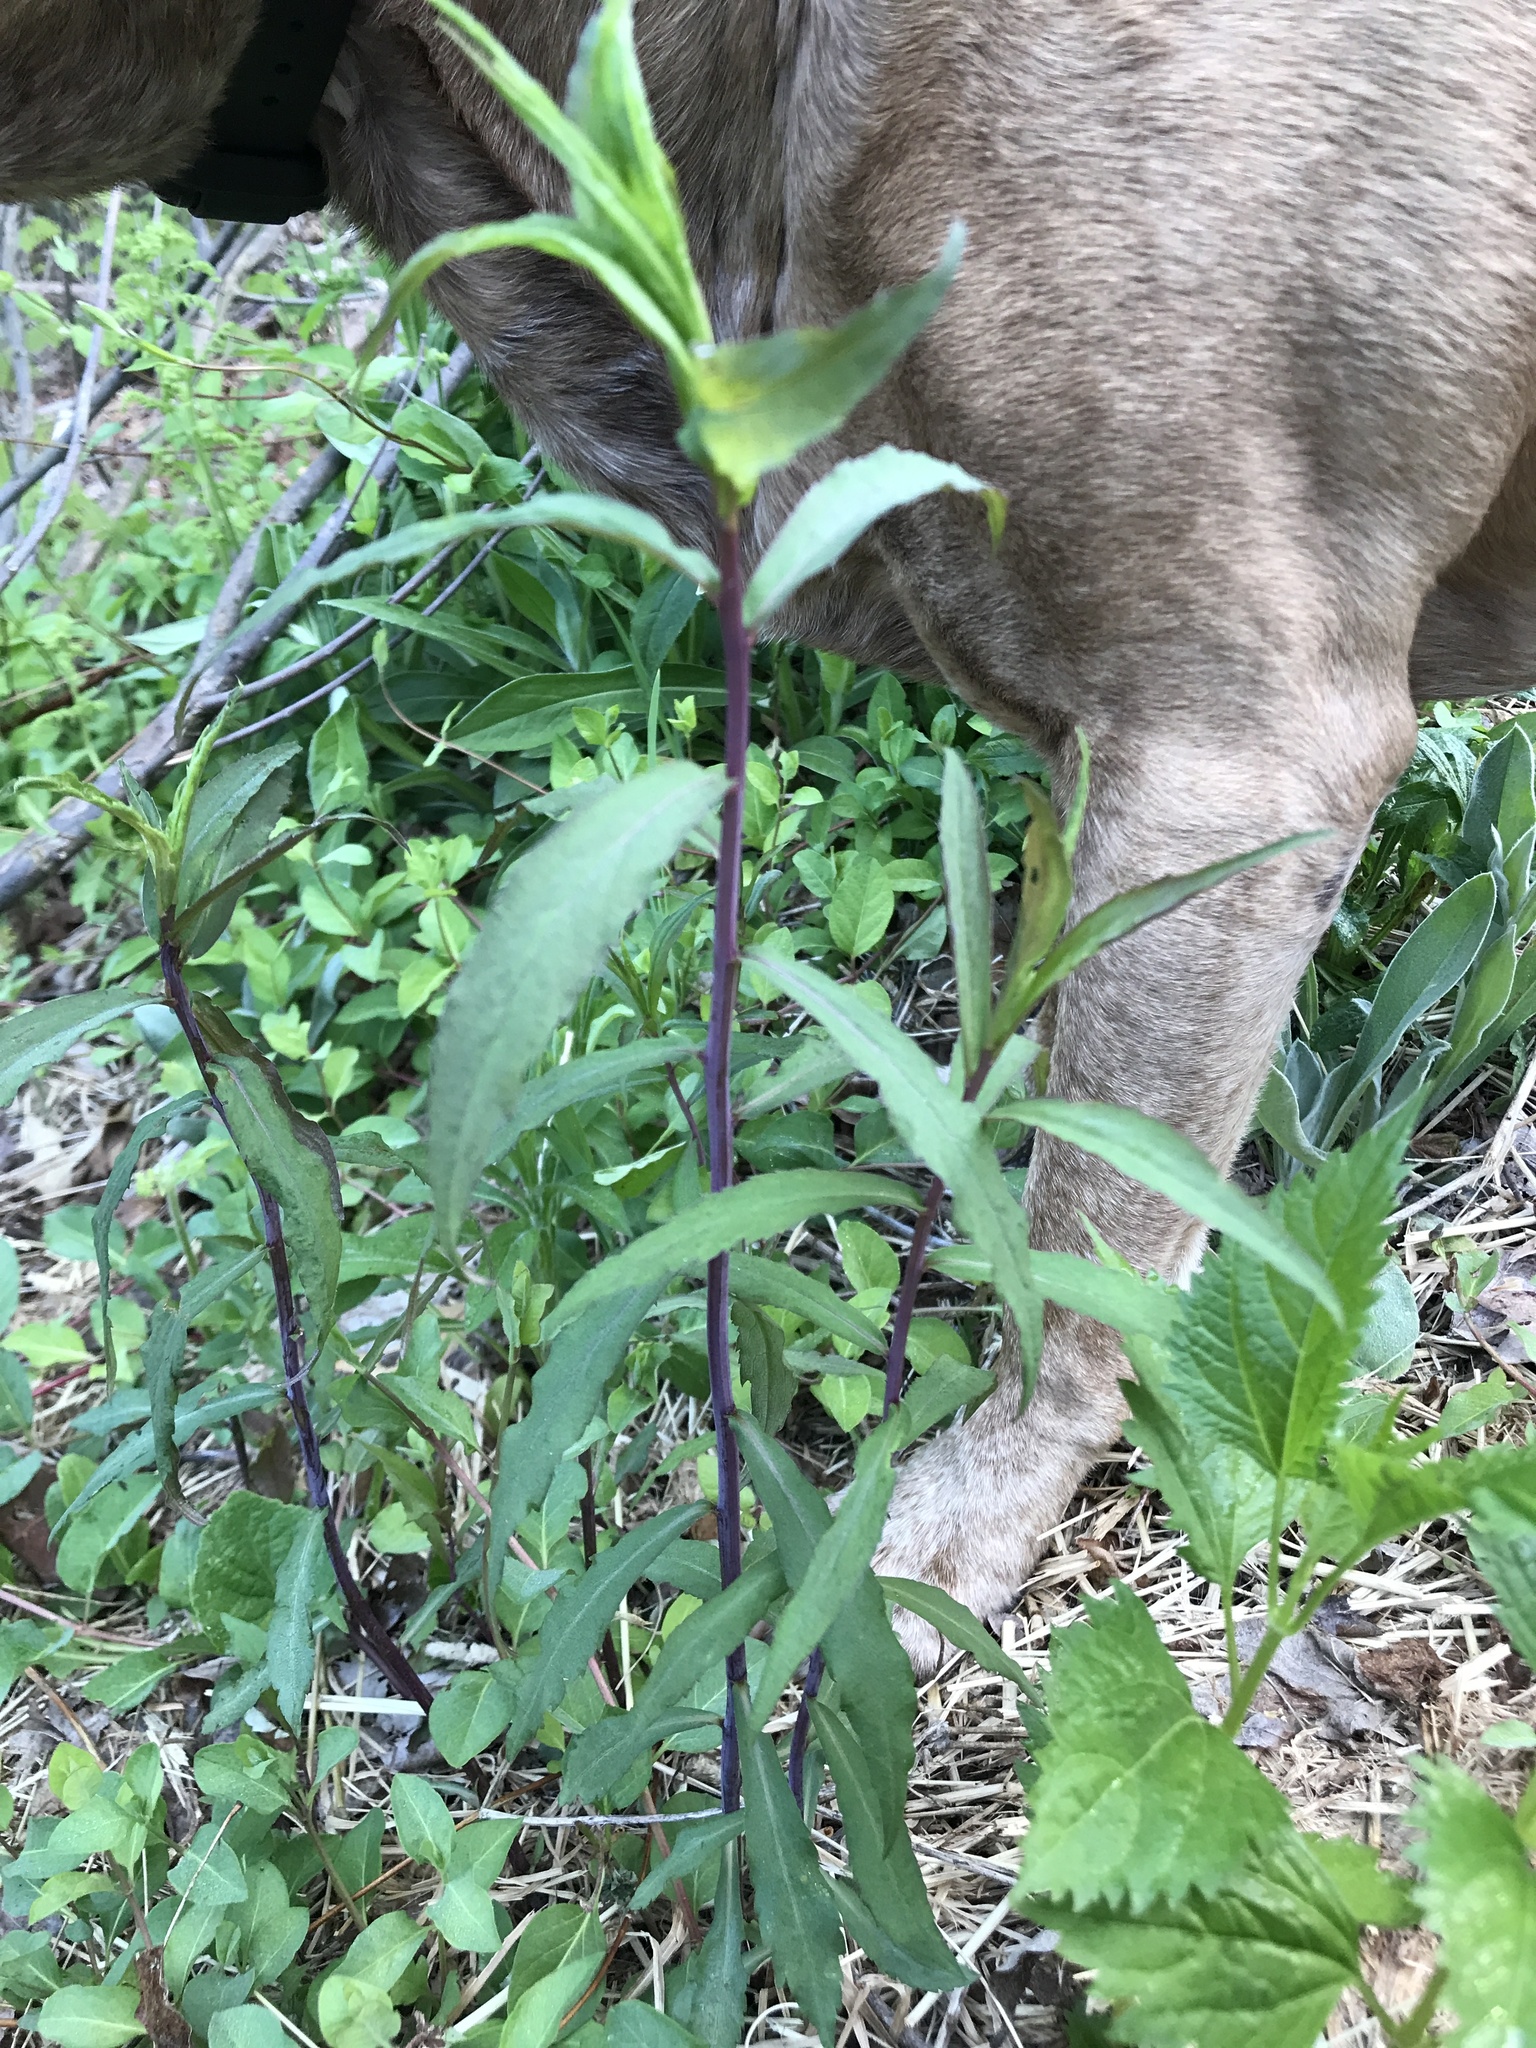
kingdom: Plantae
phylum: Tracheophyta
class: Magnoliopsida
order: Asterales
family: Asteraceae
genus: Solidago
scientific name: Solidago caesia
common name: Woodland goldenrod
